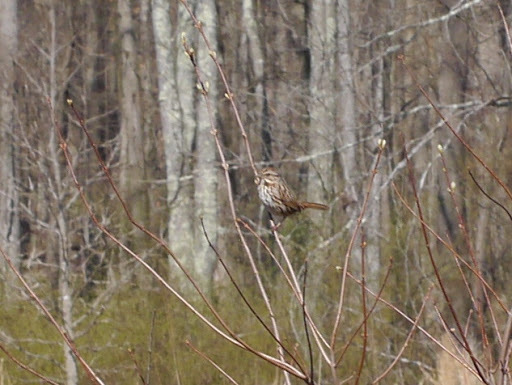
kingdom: Animalia
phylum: Chordata
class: Aves
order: Passeriformes
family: Passerellidae
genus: Melospiza
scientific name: Melospiza melodia
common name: Song sparrow
